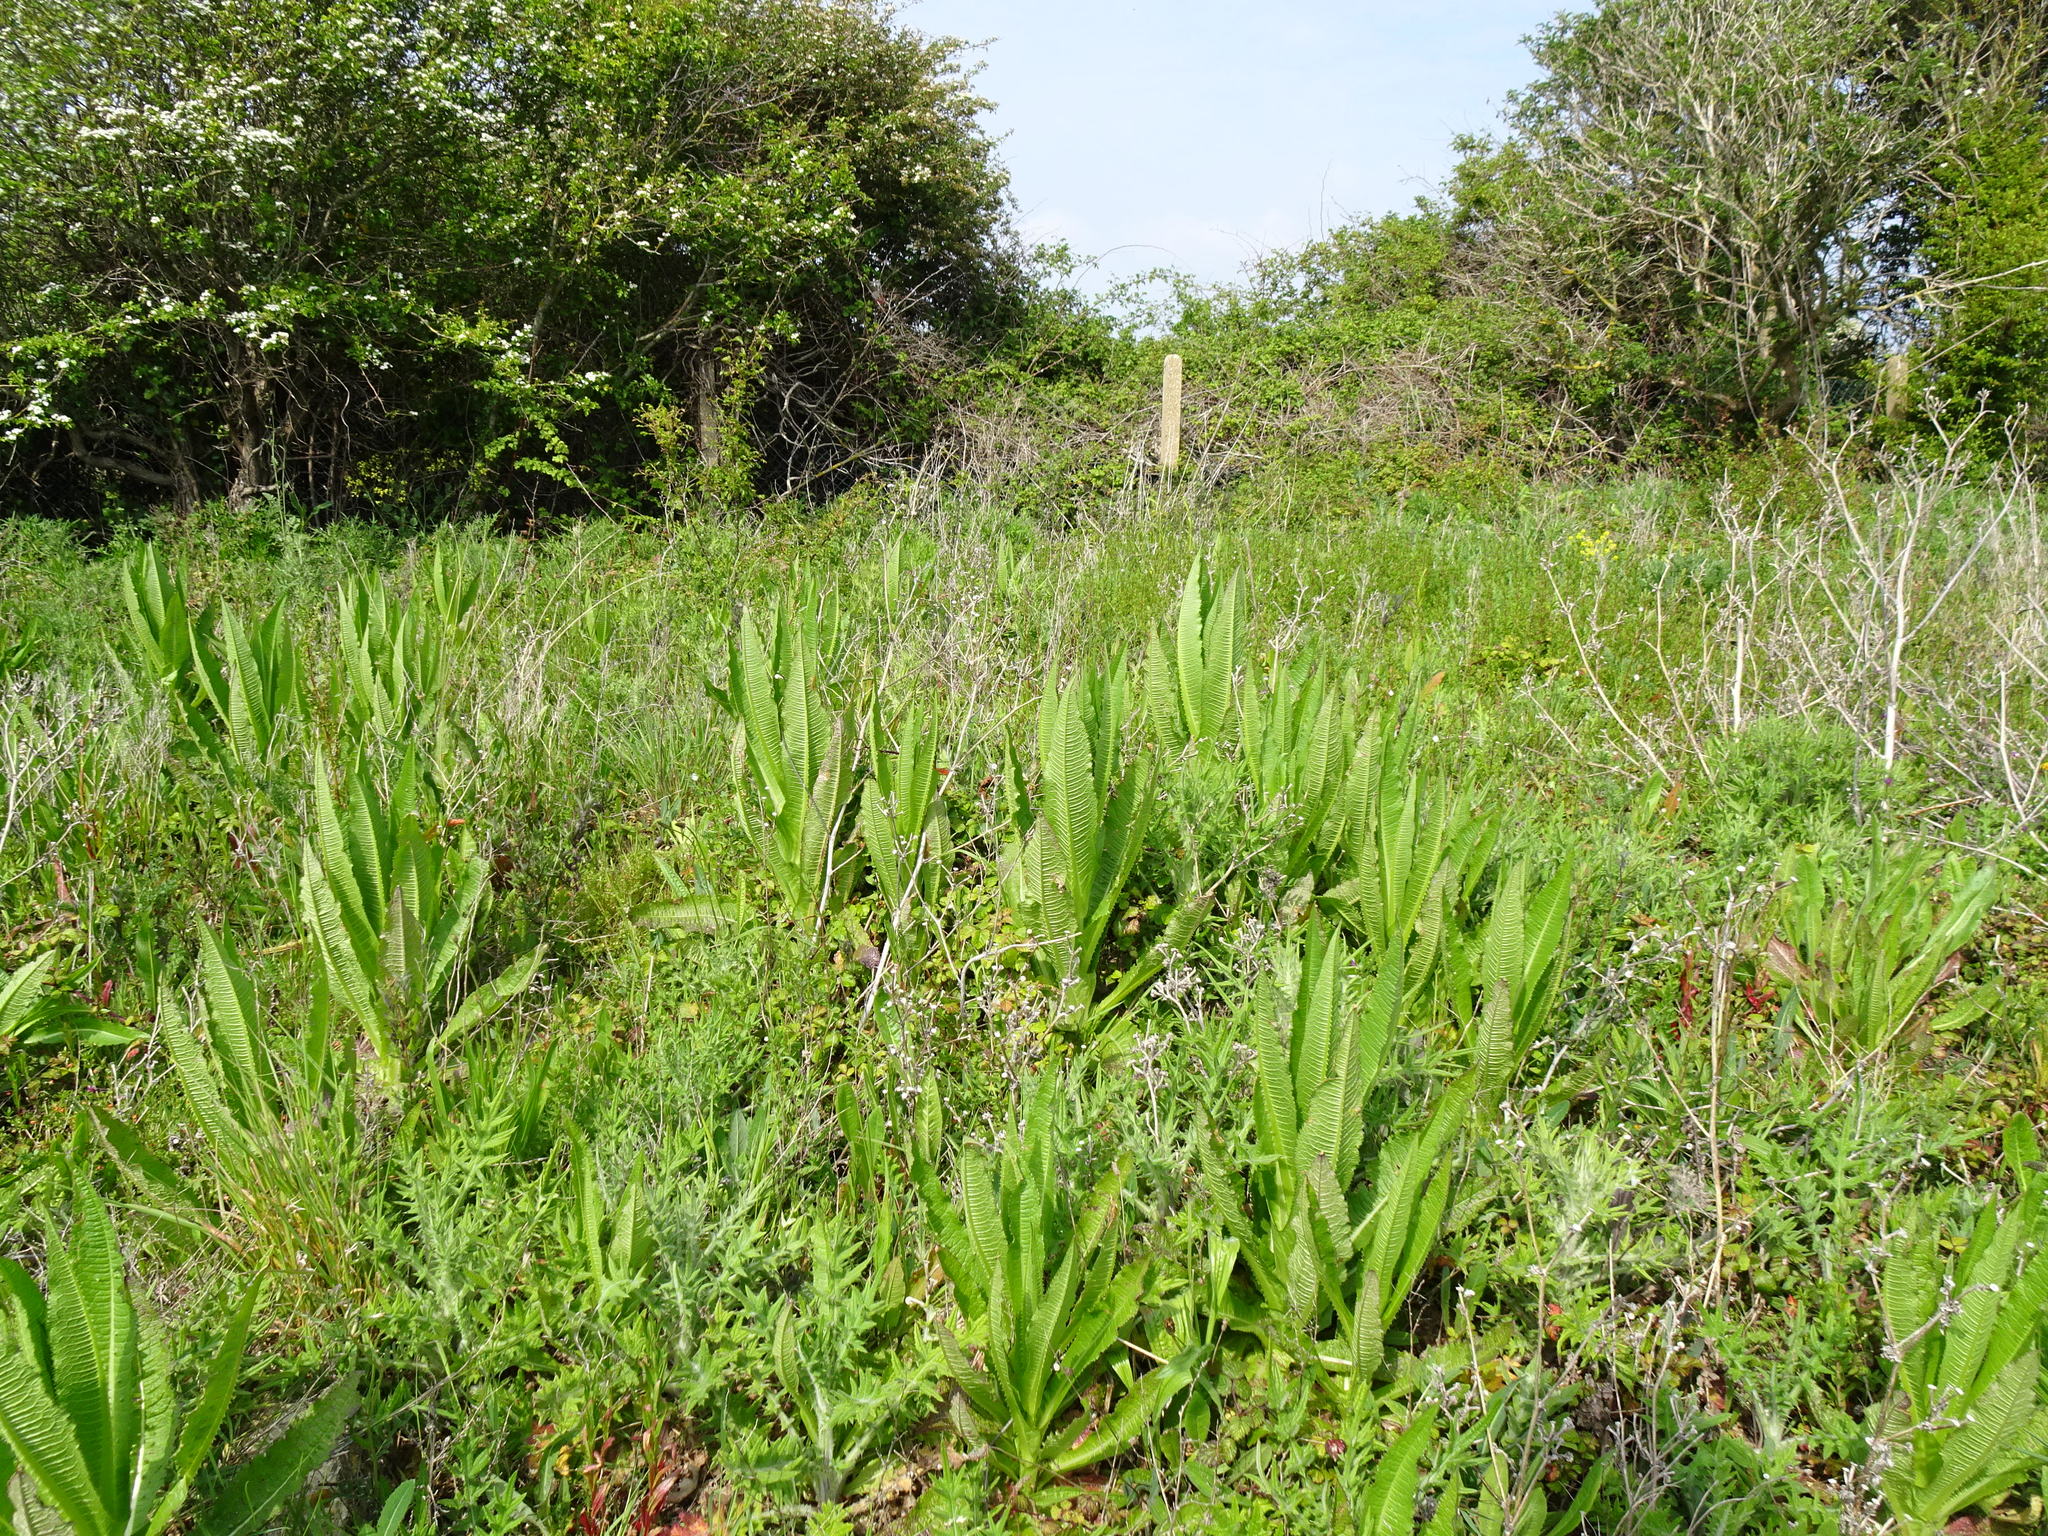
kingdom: Plantae
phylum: Tracheophyta
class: Magnoliopsida
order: Dipsacales
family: Caprifoliaceae
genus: Dipsacus
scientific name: Dipsacus fullonum
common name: Teasel
